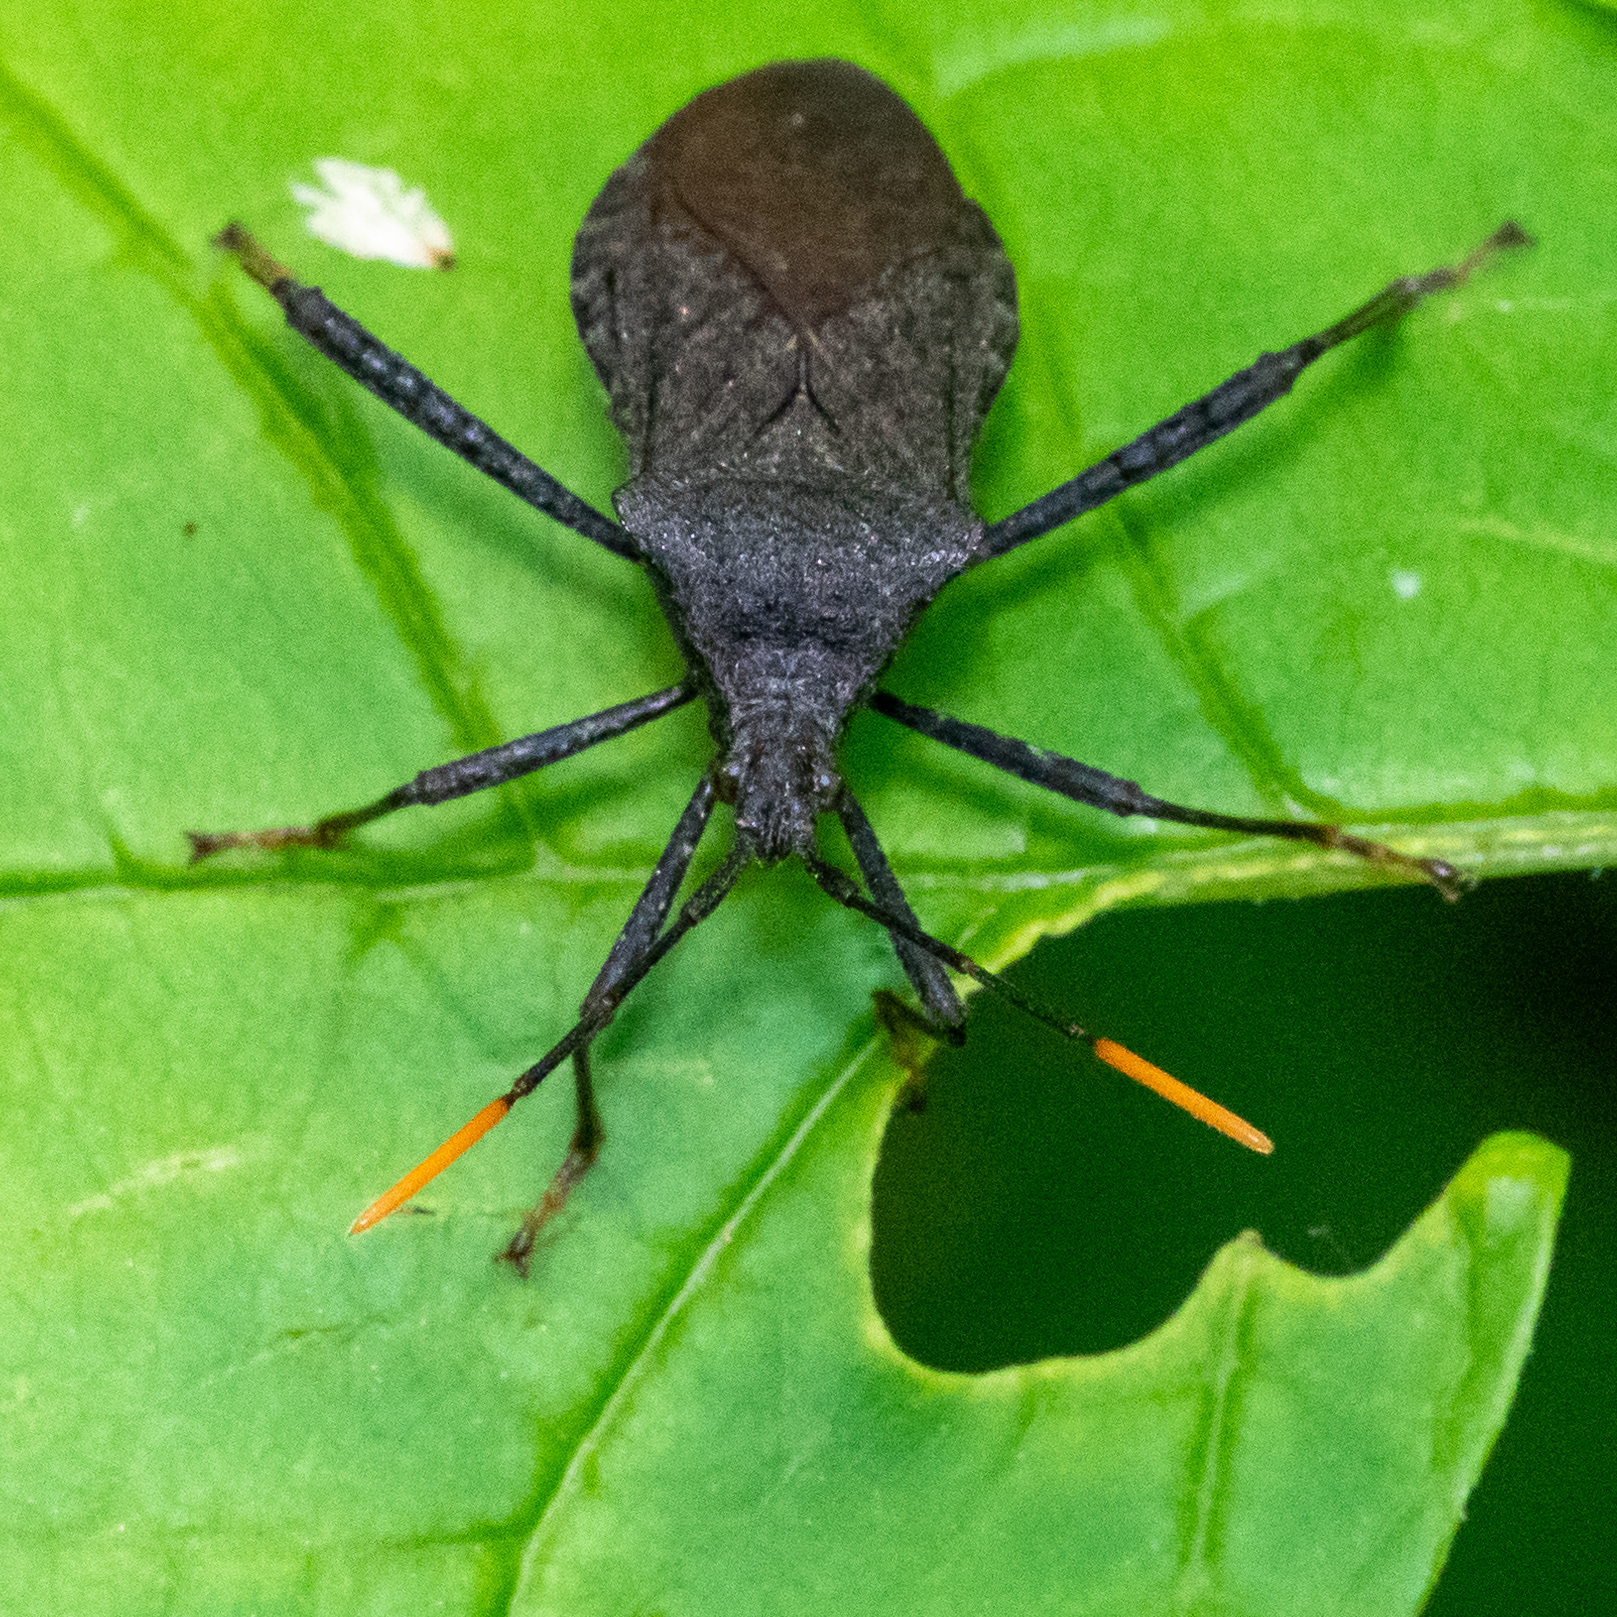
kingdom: Animalia
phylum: Arthropoda
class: Insecta
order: Hemiptera
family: Coreidae
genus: Acanthocephala
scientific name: Acanthocephala terminalis
